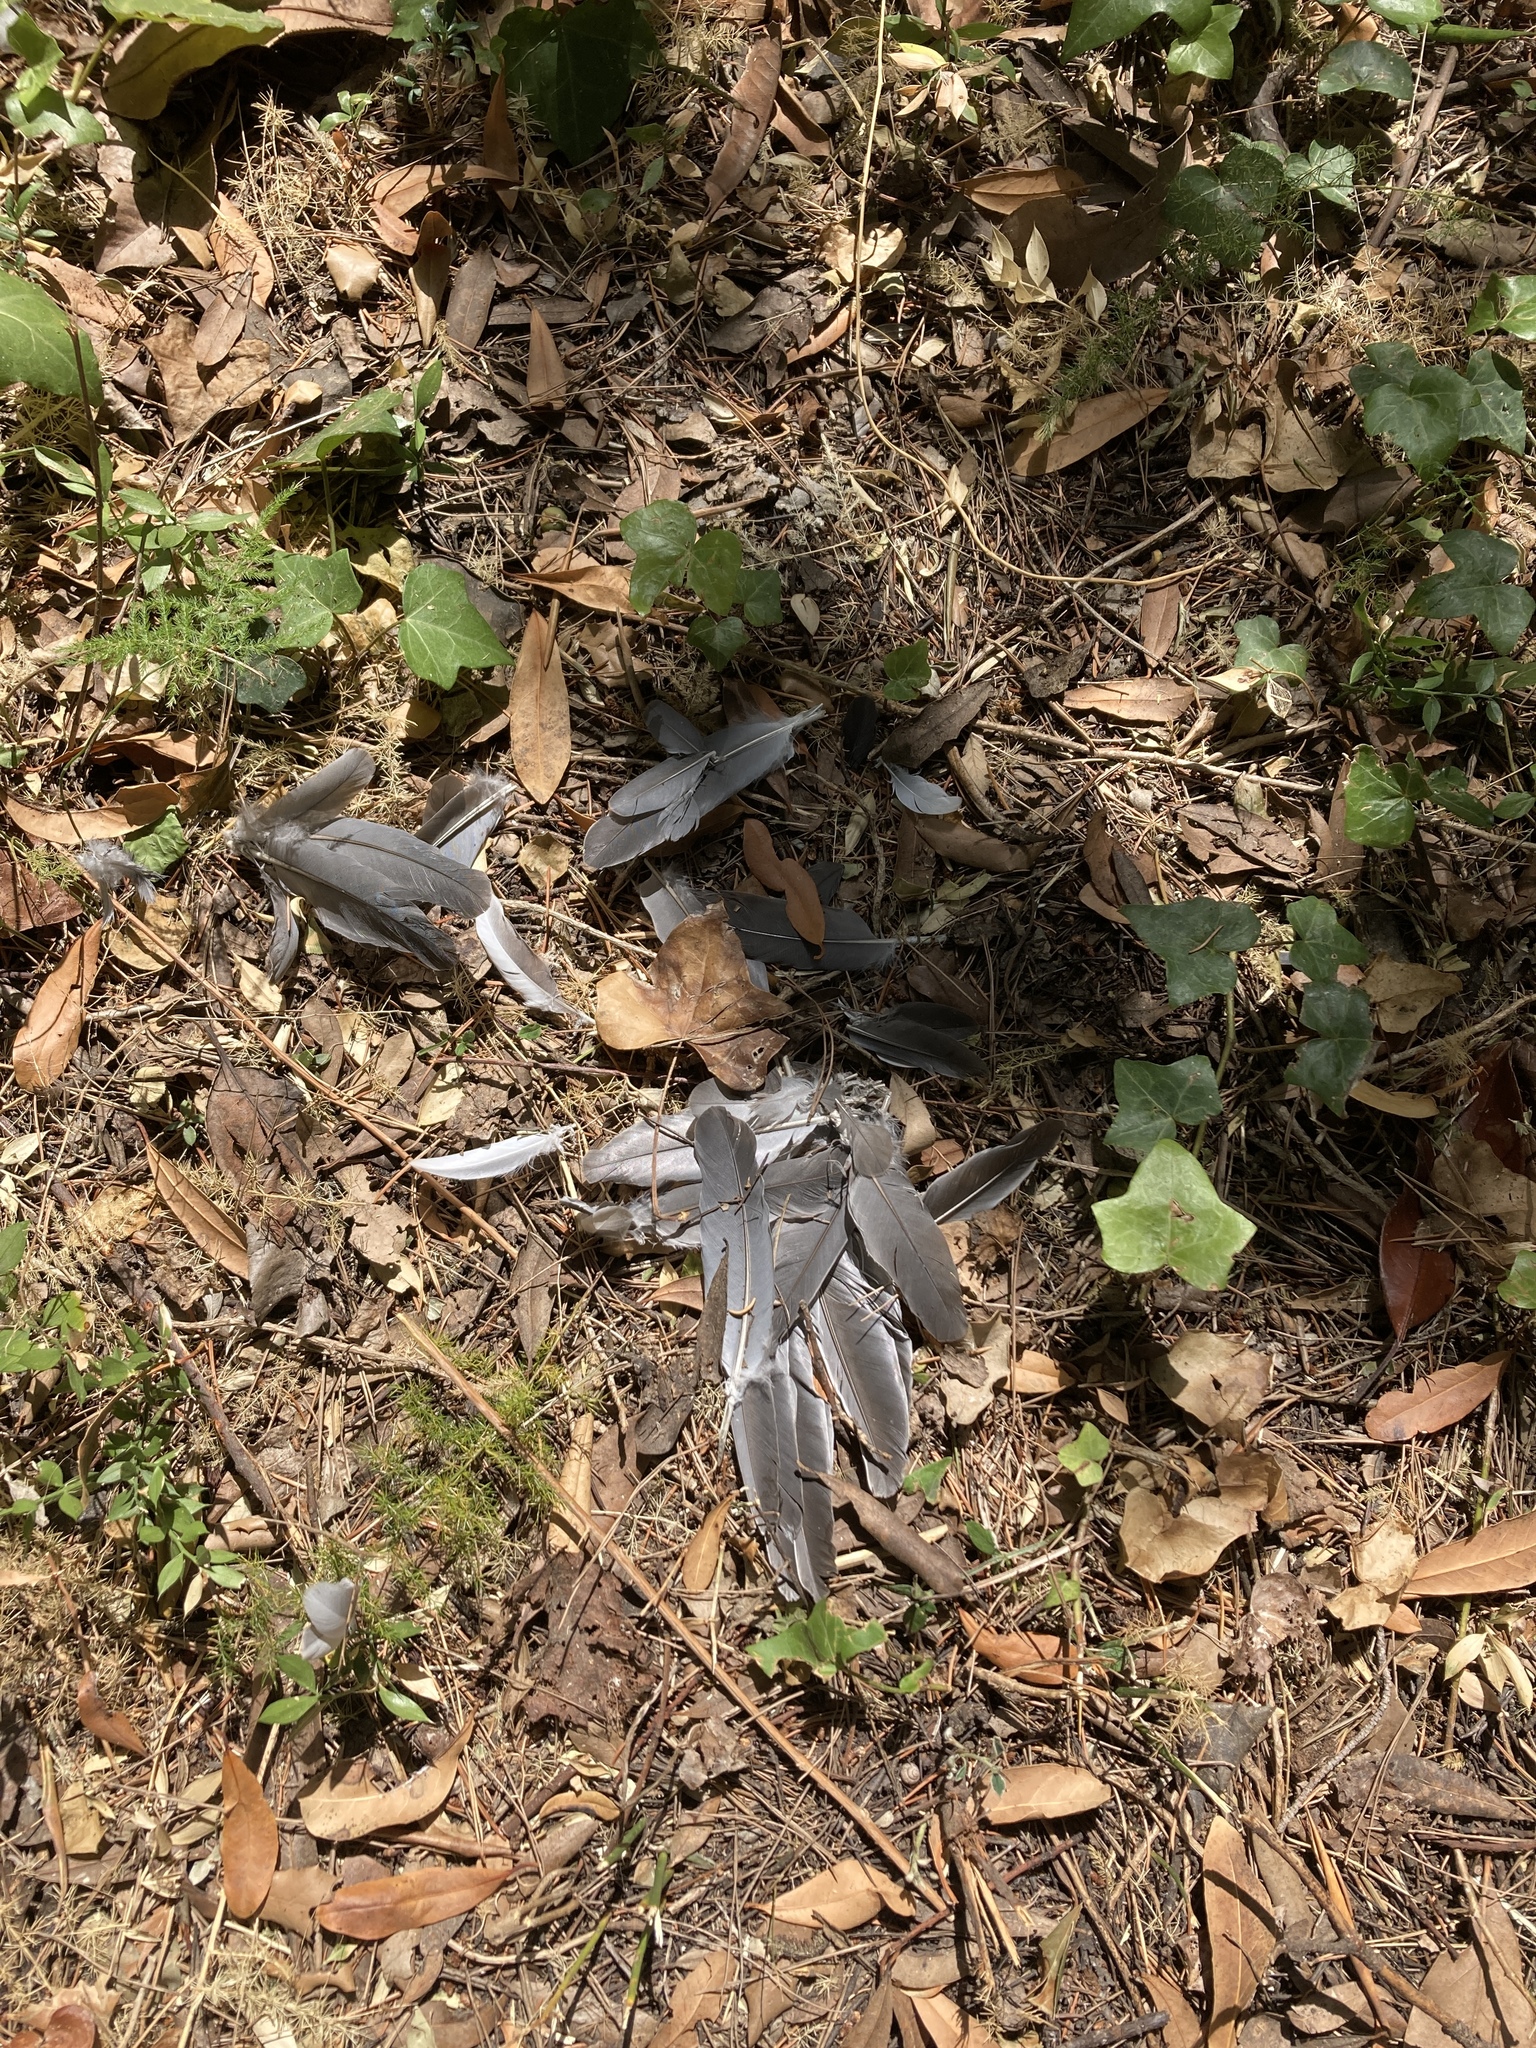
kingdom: Animalia
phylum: Chordata
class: Aves
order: Columbiformes
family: Columbidae
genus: Columba
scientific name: Columba palumbus
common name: Common wood pigeon
